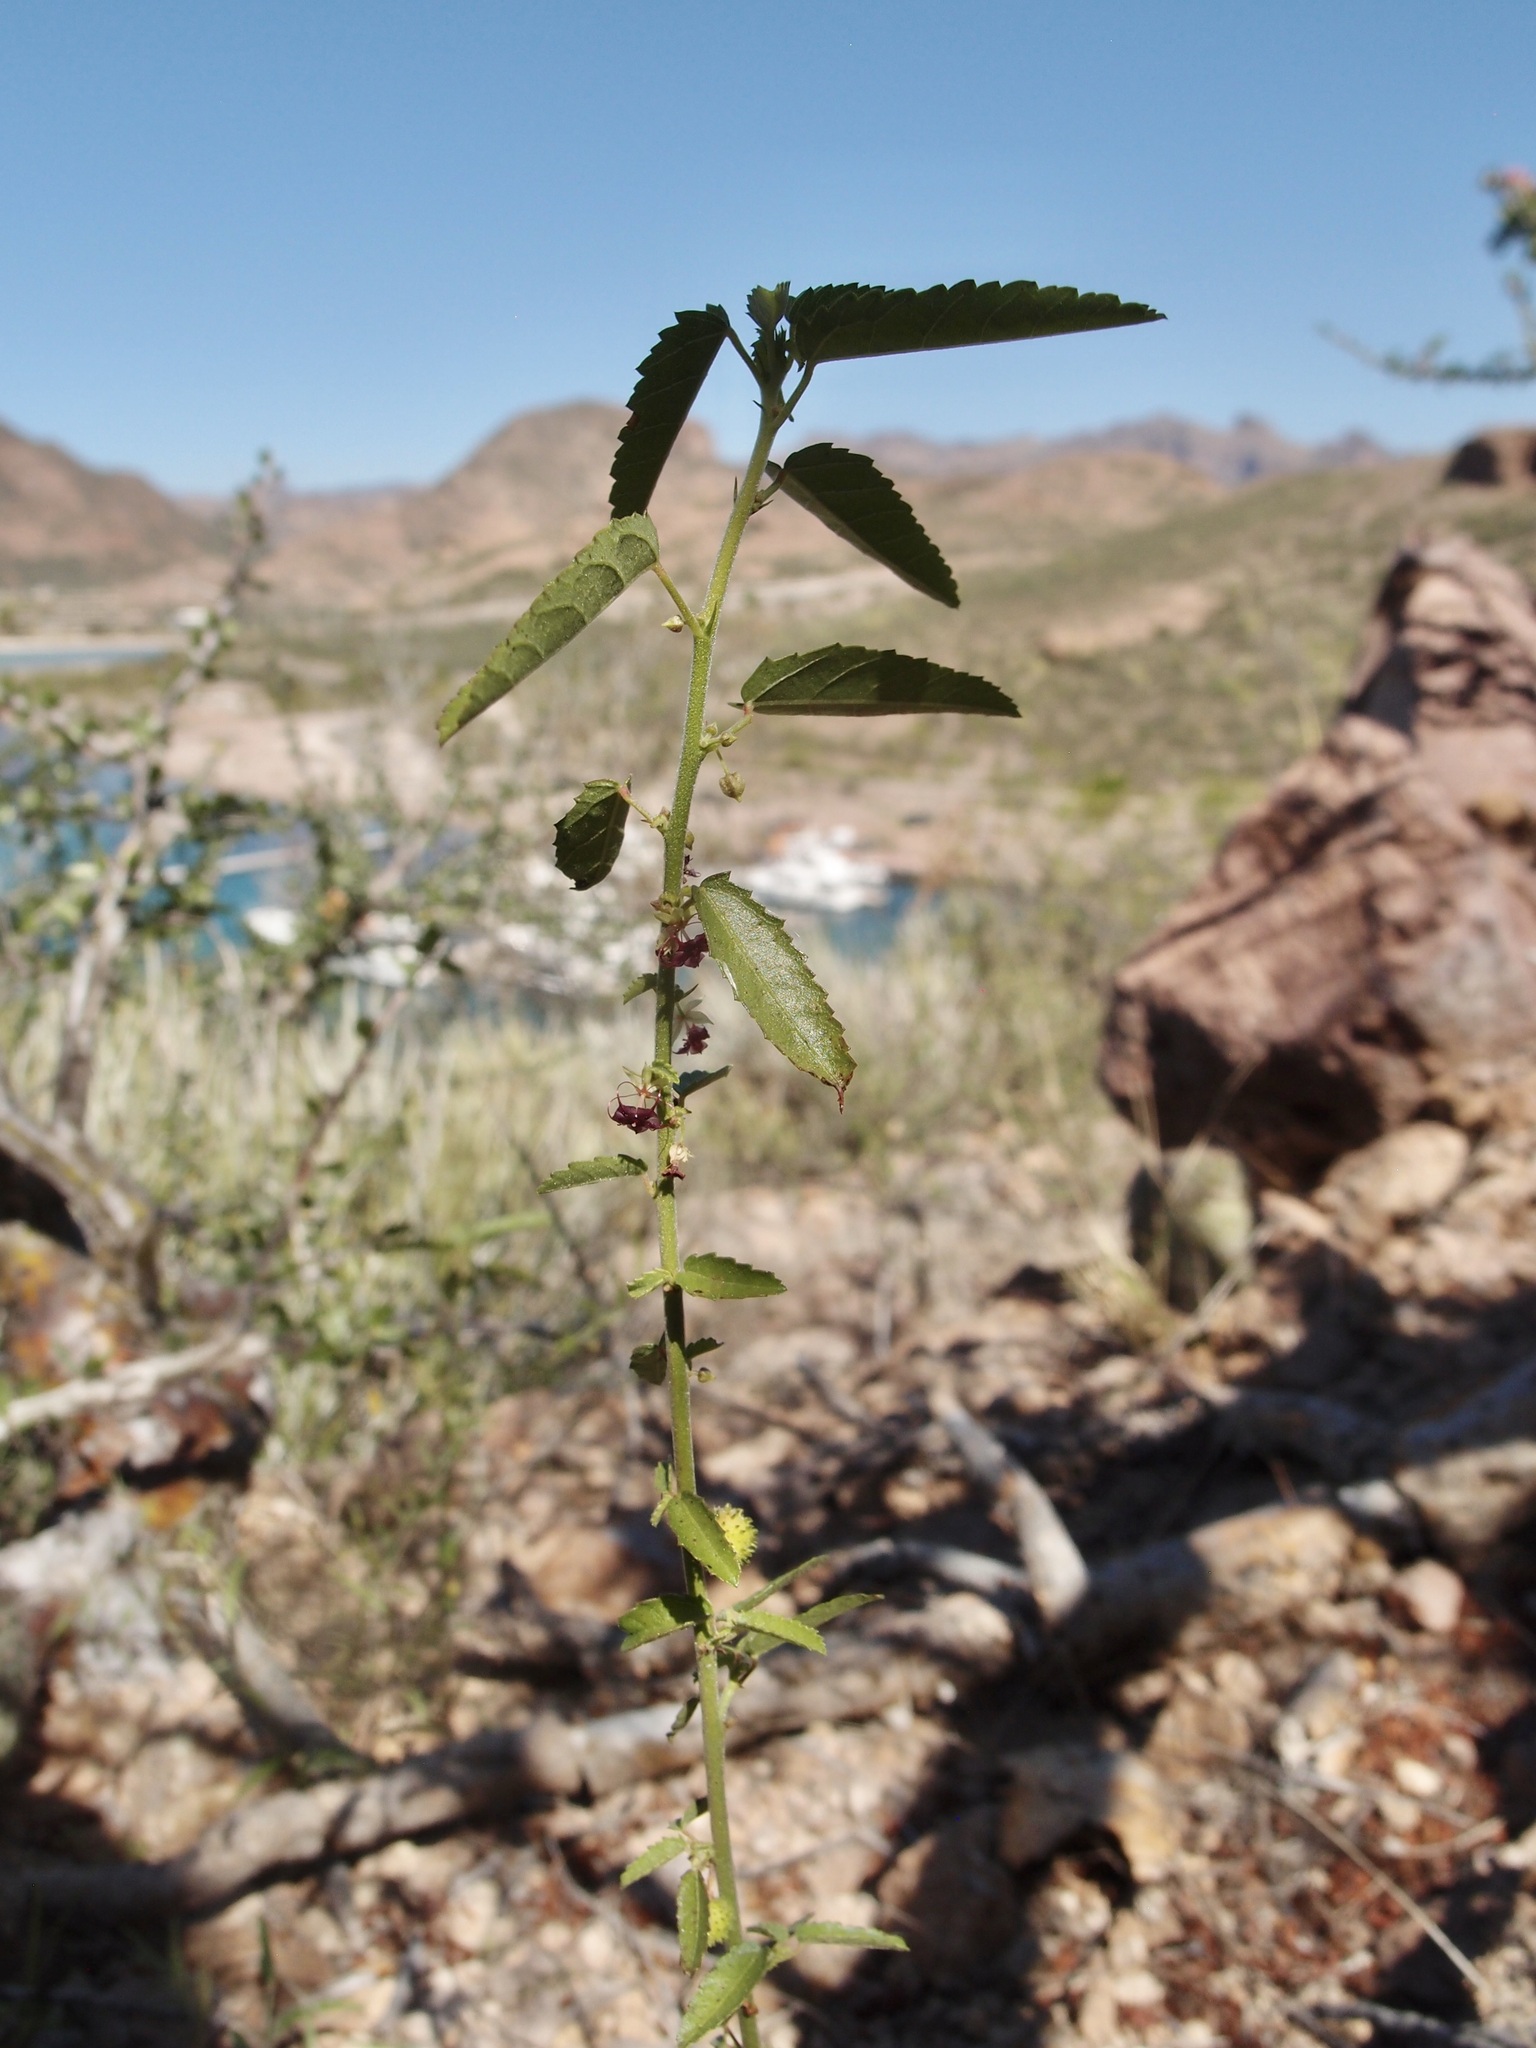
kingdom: Plantae
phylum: Tracheophyta
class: Magnoliopsida
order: Malvales
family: Malvaceae
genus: Ayenia
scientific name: Ayenia filiformis
